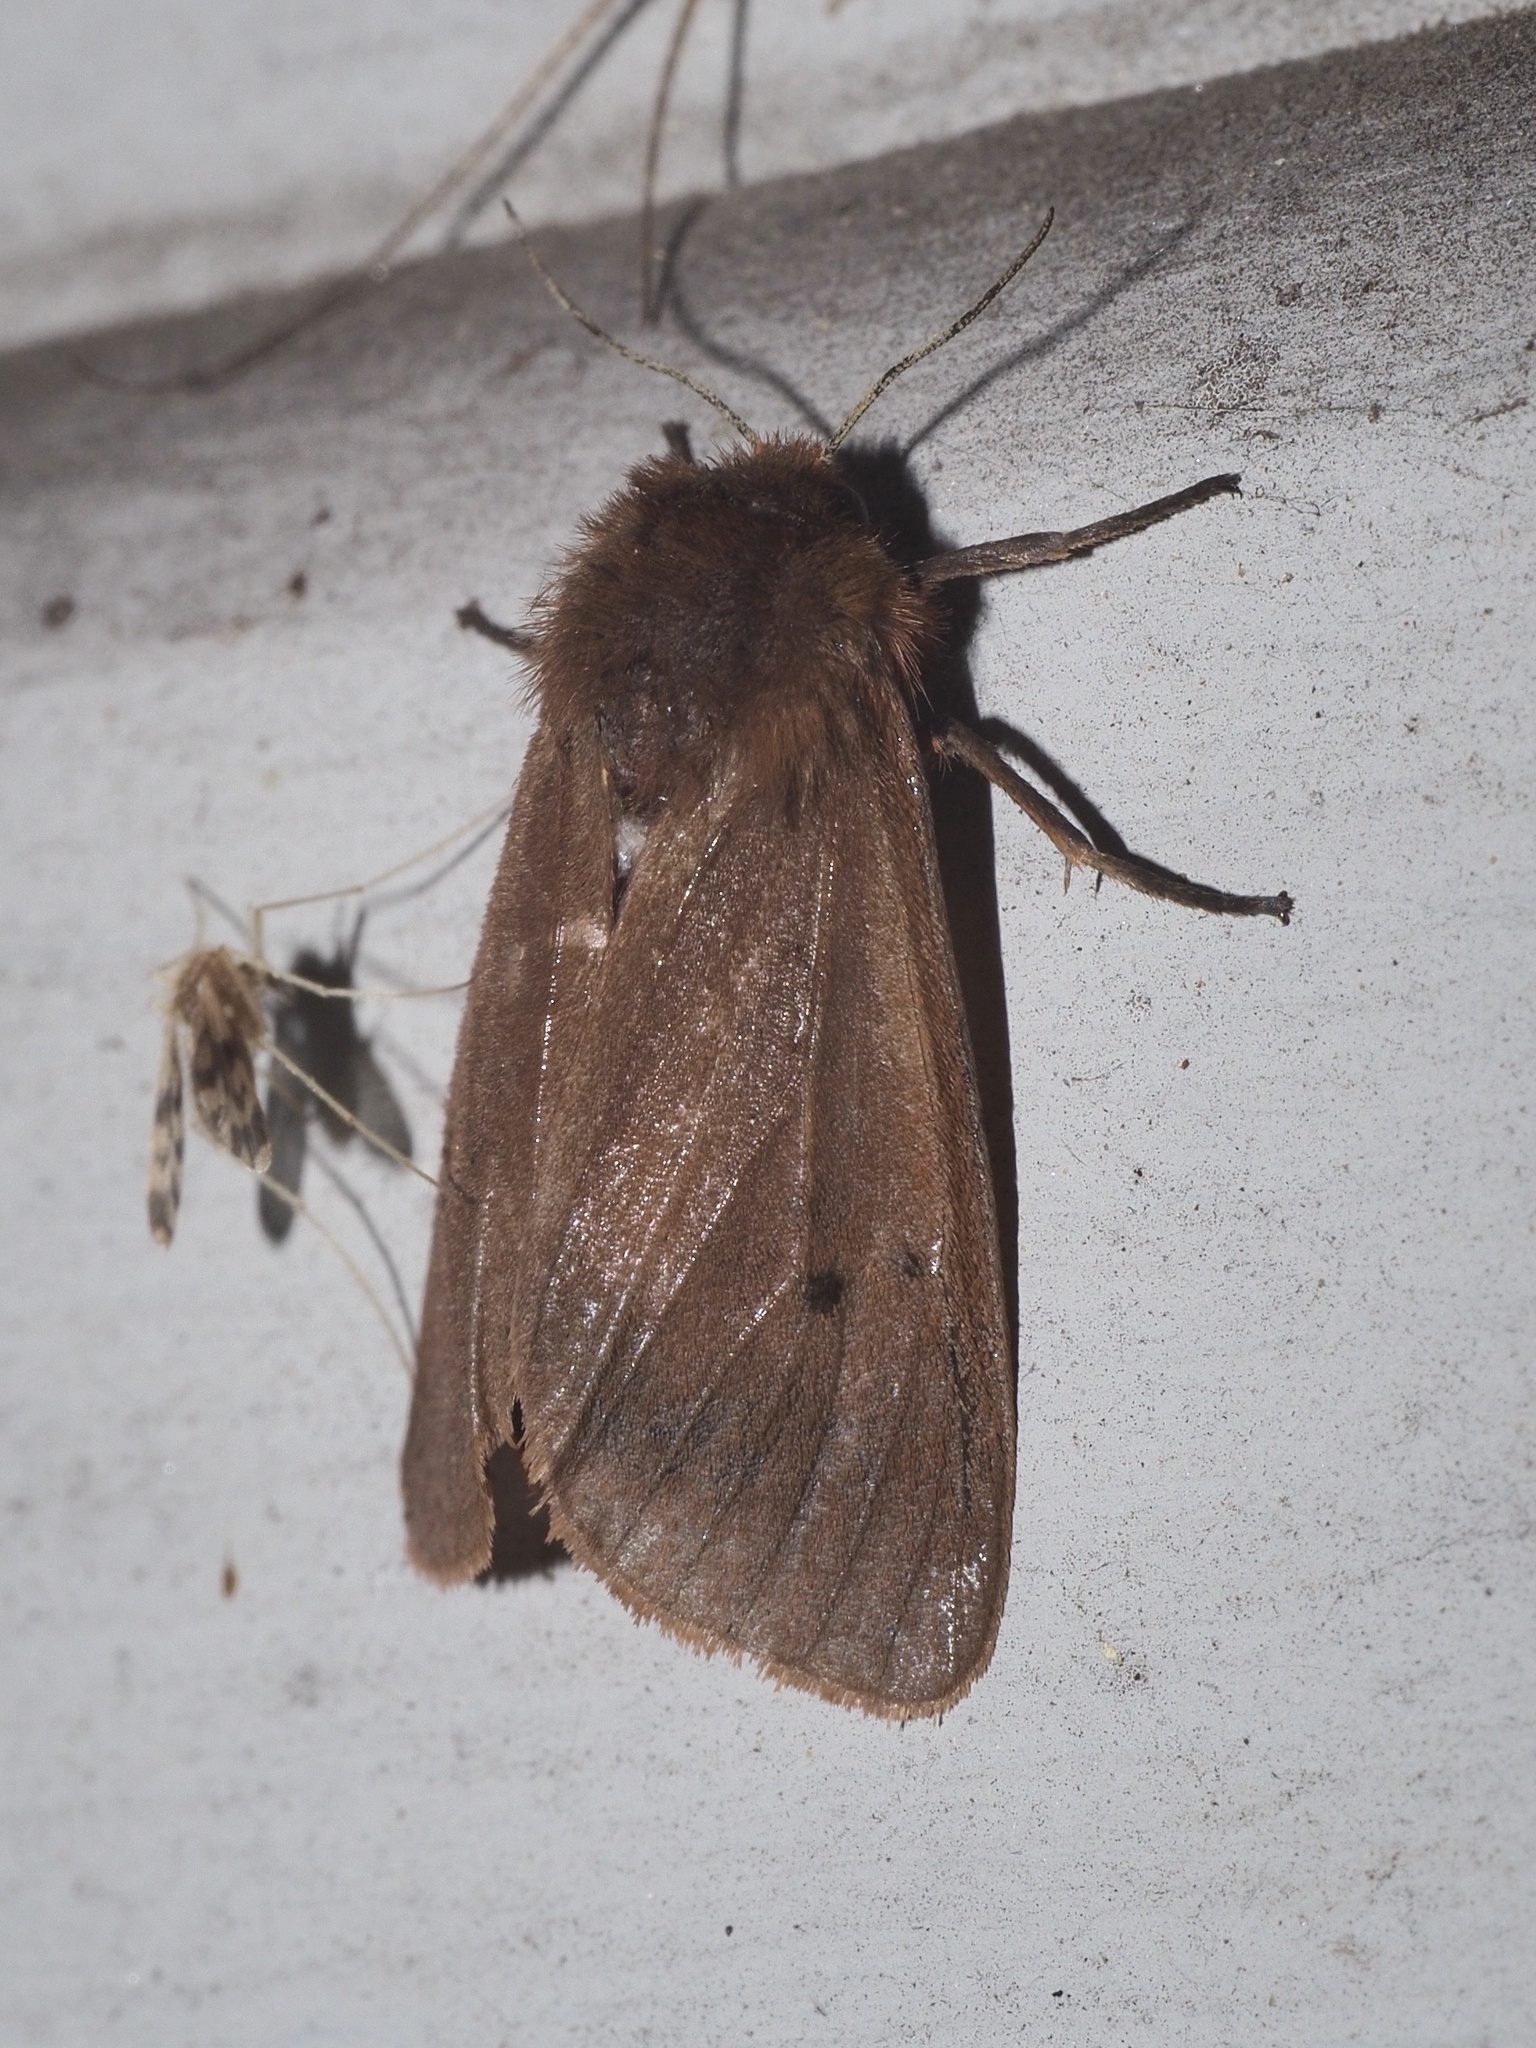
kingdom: Animalia
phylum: Arthropoda
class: Insecta
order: Lepidoptera
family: Erebidae
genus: Phragmatobia
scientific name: Phragmatobia fuliginosa
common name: Ruby tiger
